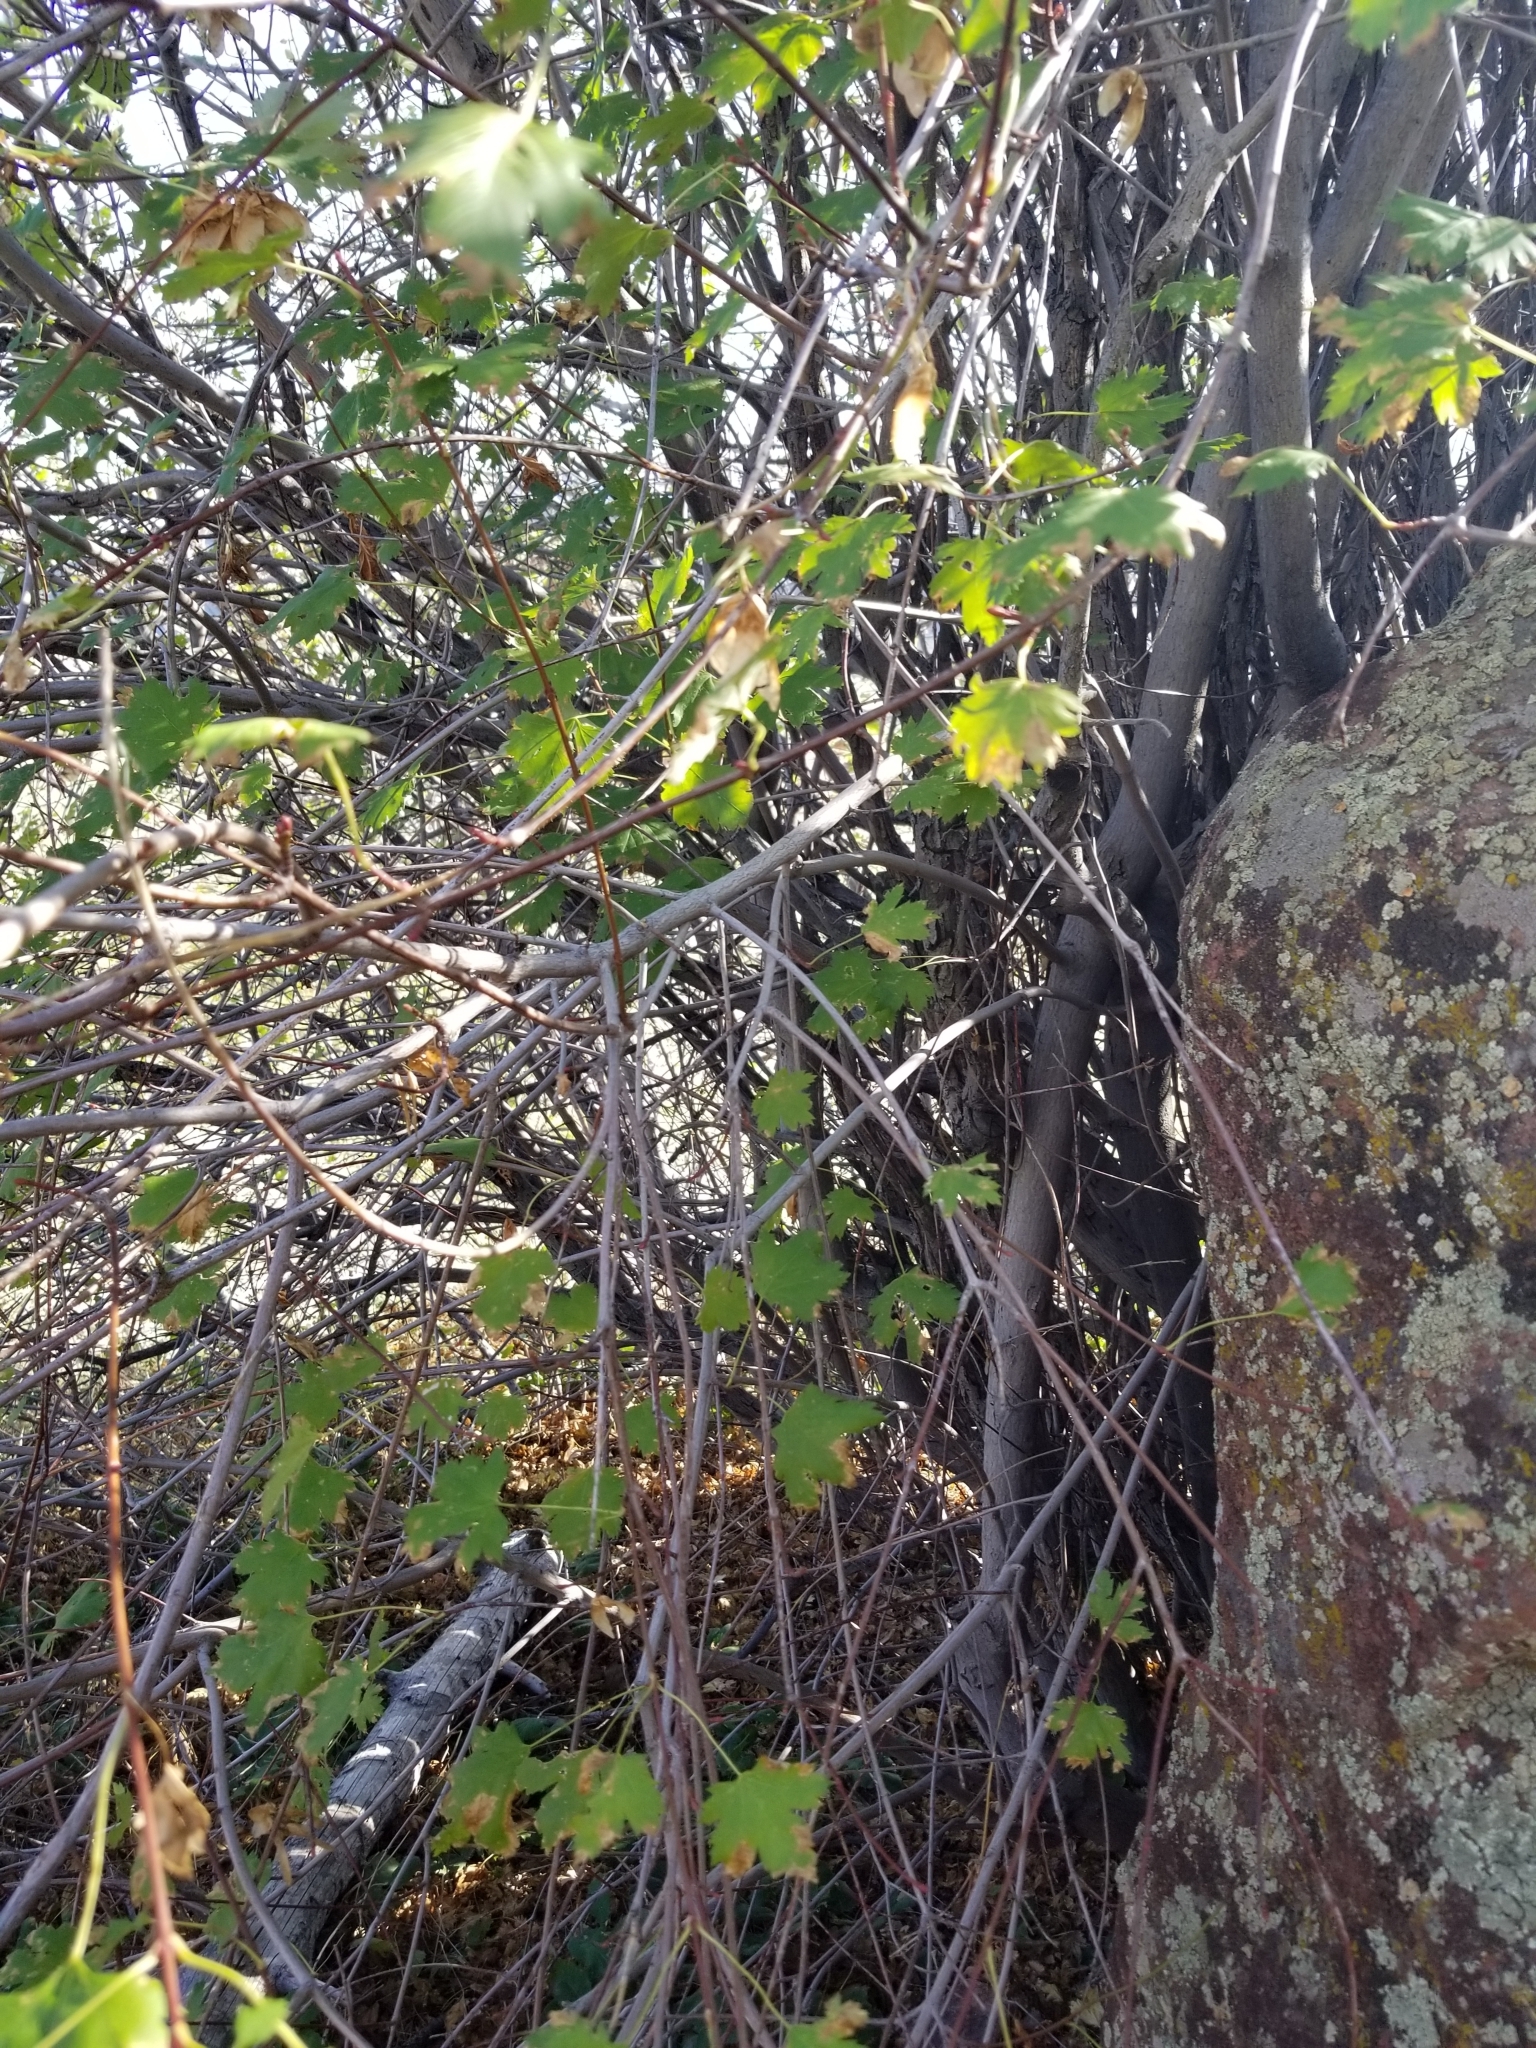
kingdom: Plantae
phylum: Tracheophyta
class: Magnoliopsida
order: Sapindales
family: Sapindaceae
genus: Acer
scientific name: Acer glabrum
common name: Rocky mountain maple
